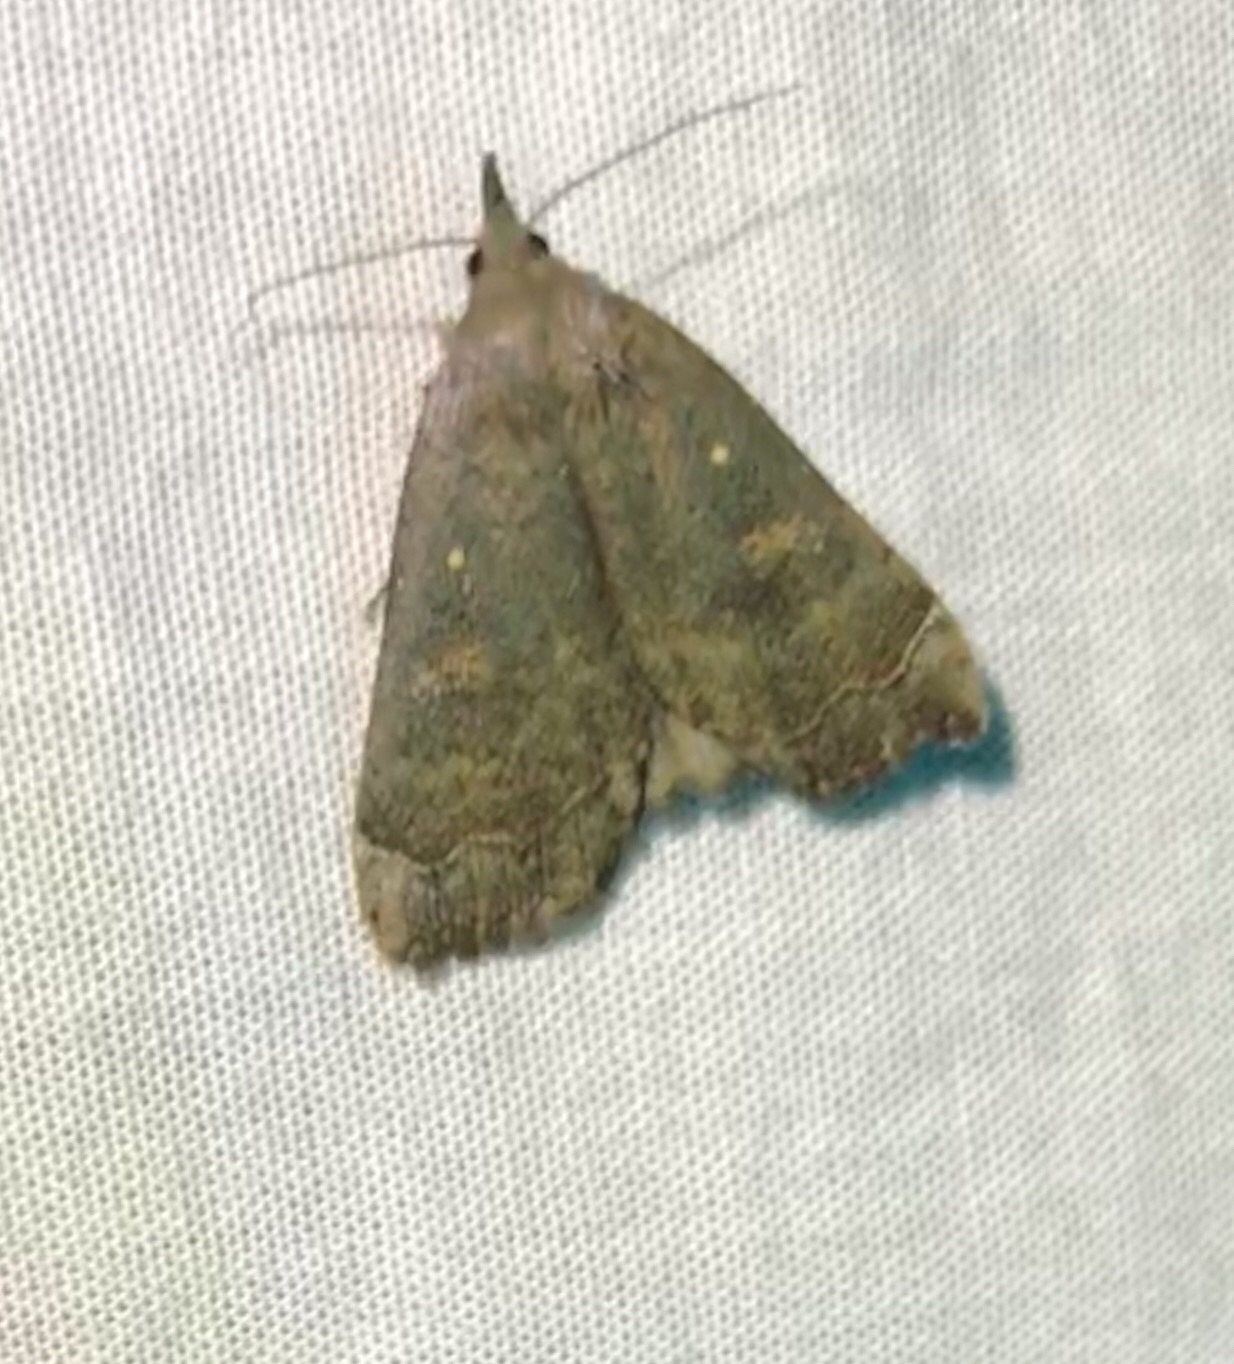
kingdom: Animalia
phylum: Arthropoda
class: Insecta
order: Lepidoptera
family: Erebidae
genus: Rhapsa
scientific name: Rhapsa scotosialis
